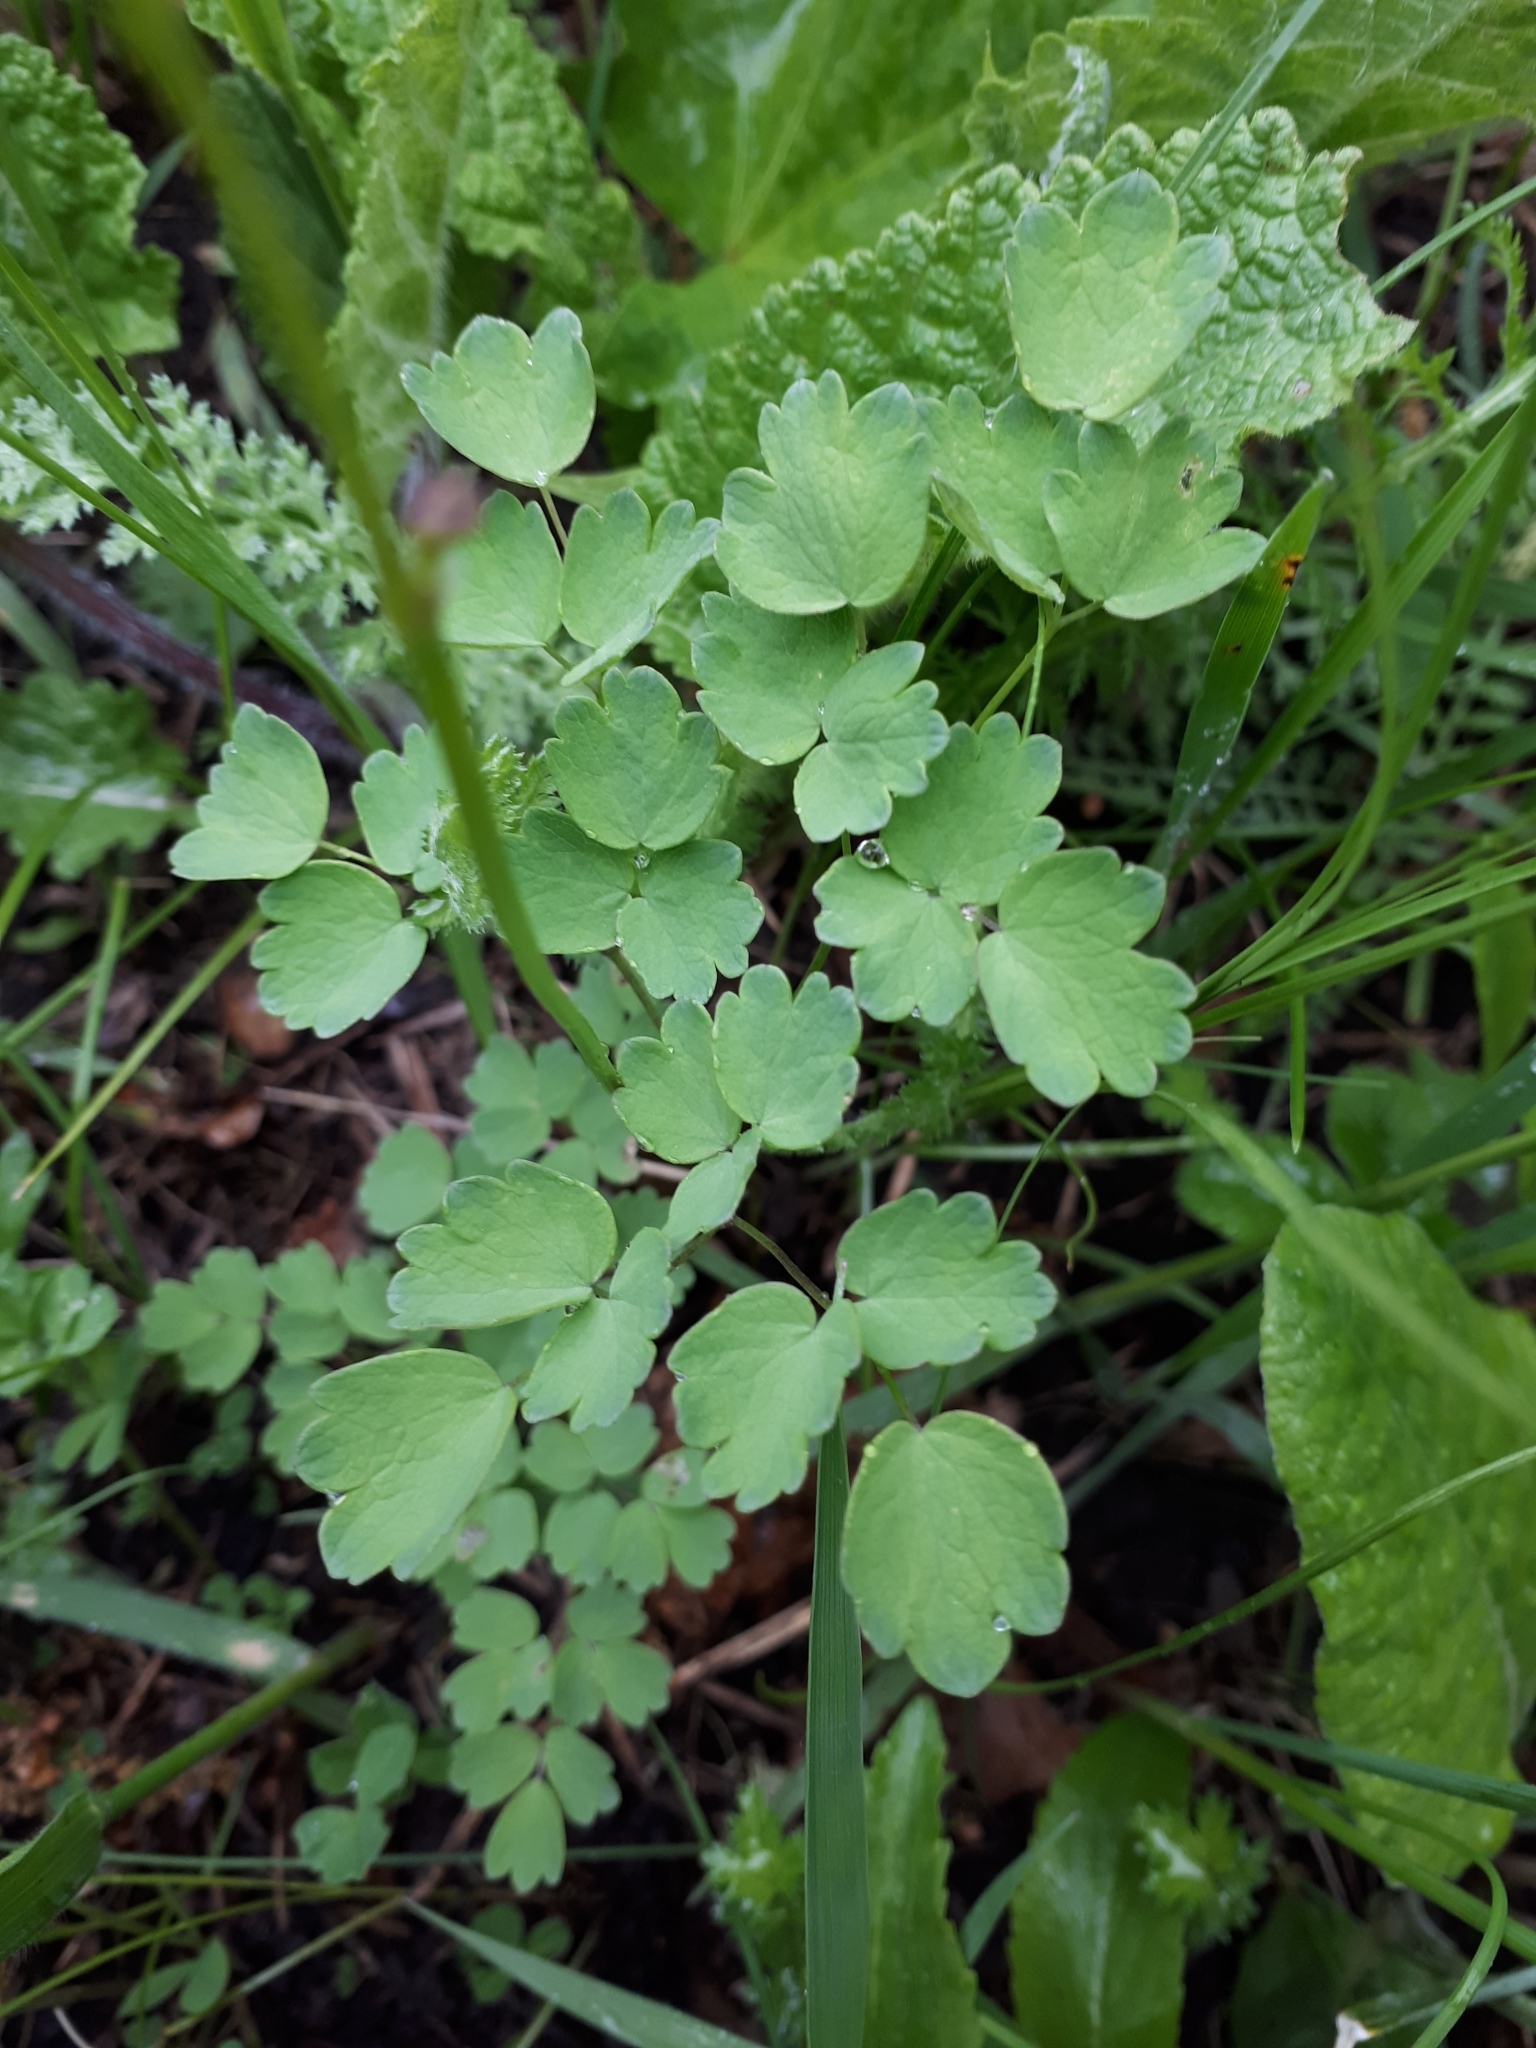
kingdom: Plantae
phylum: Tracheophyta
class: Magnoliopsida
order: Ranunculales
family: Ranunculaceae
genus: Thalictrum
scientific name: Thalictrum minus
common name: Lesser meadow-rue
